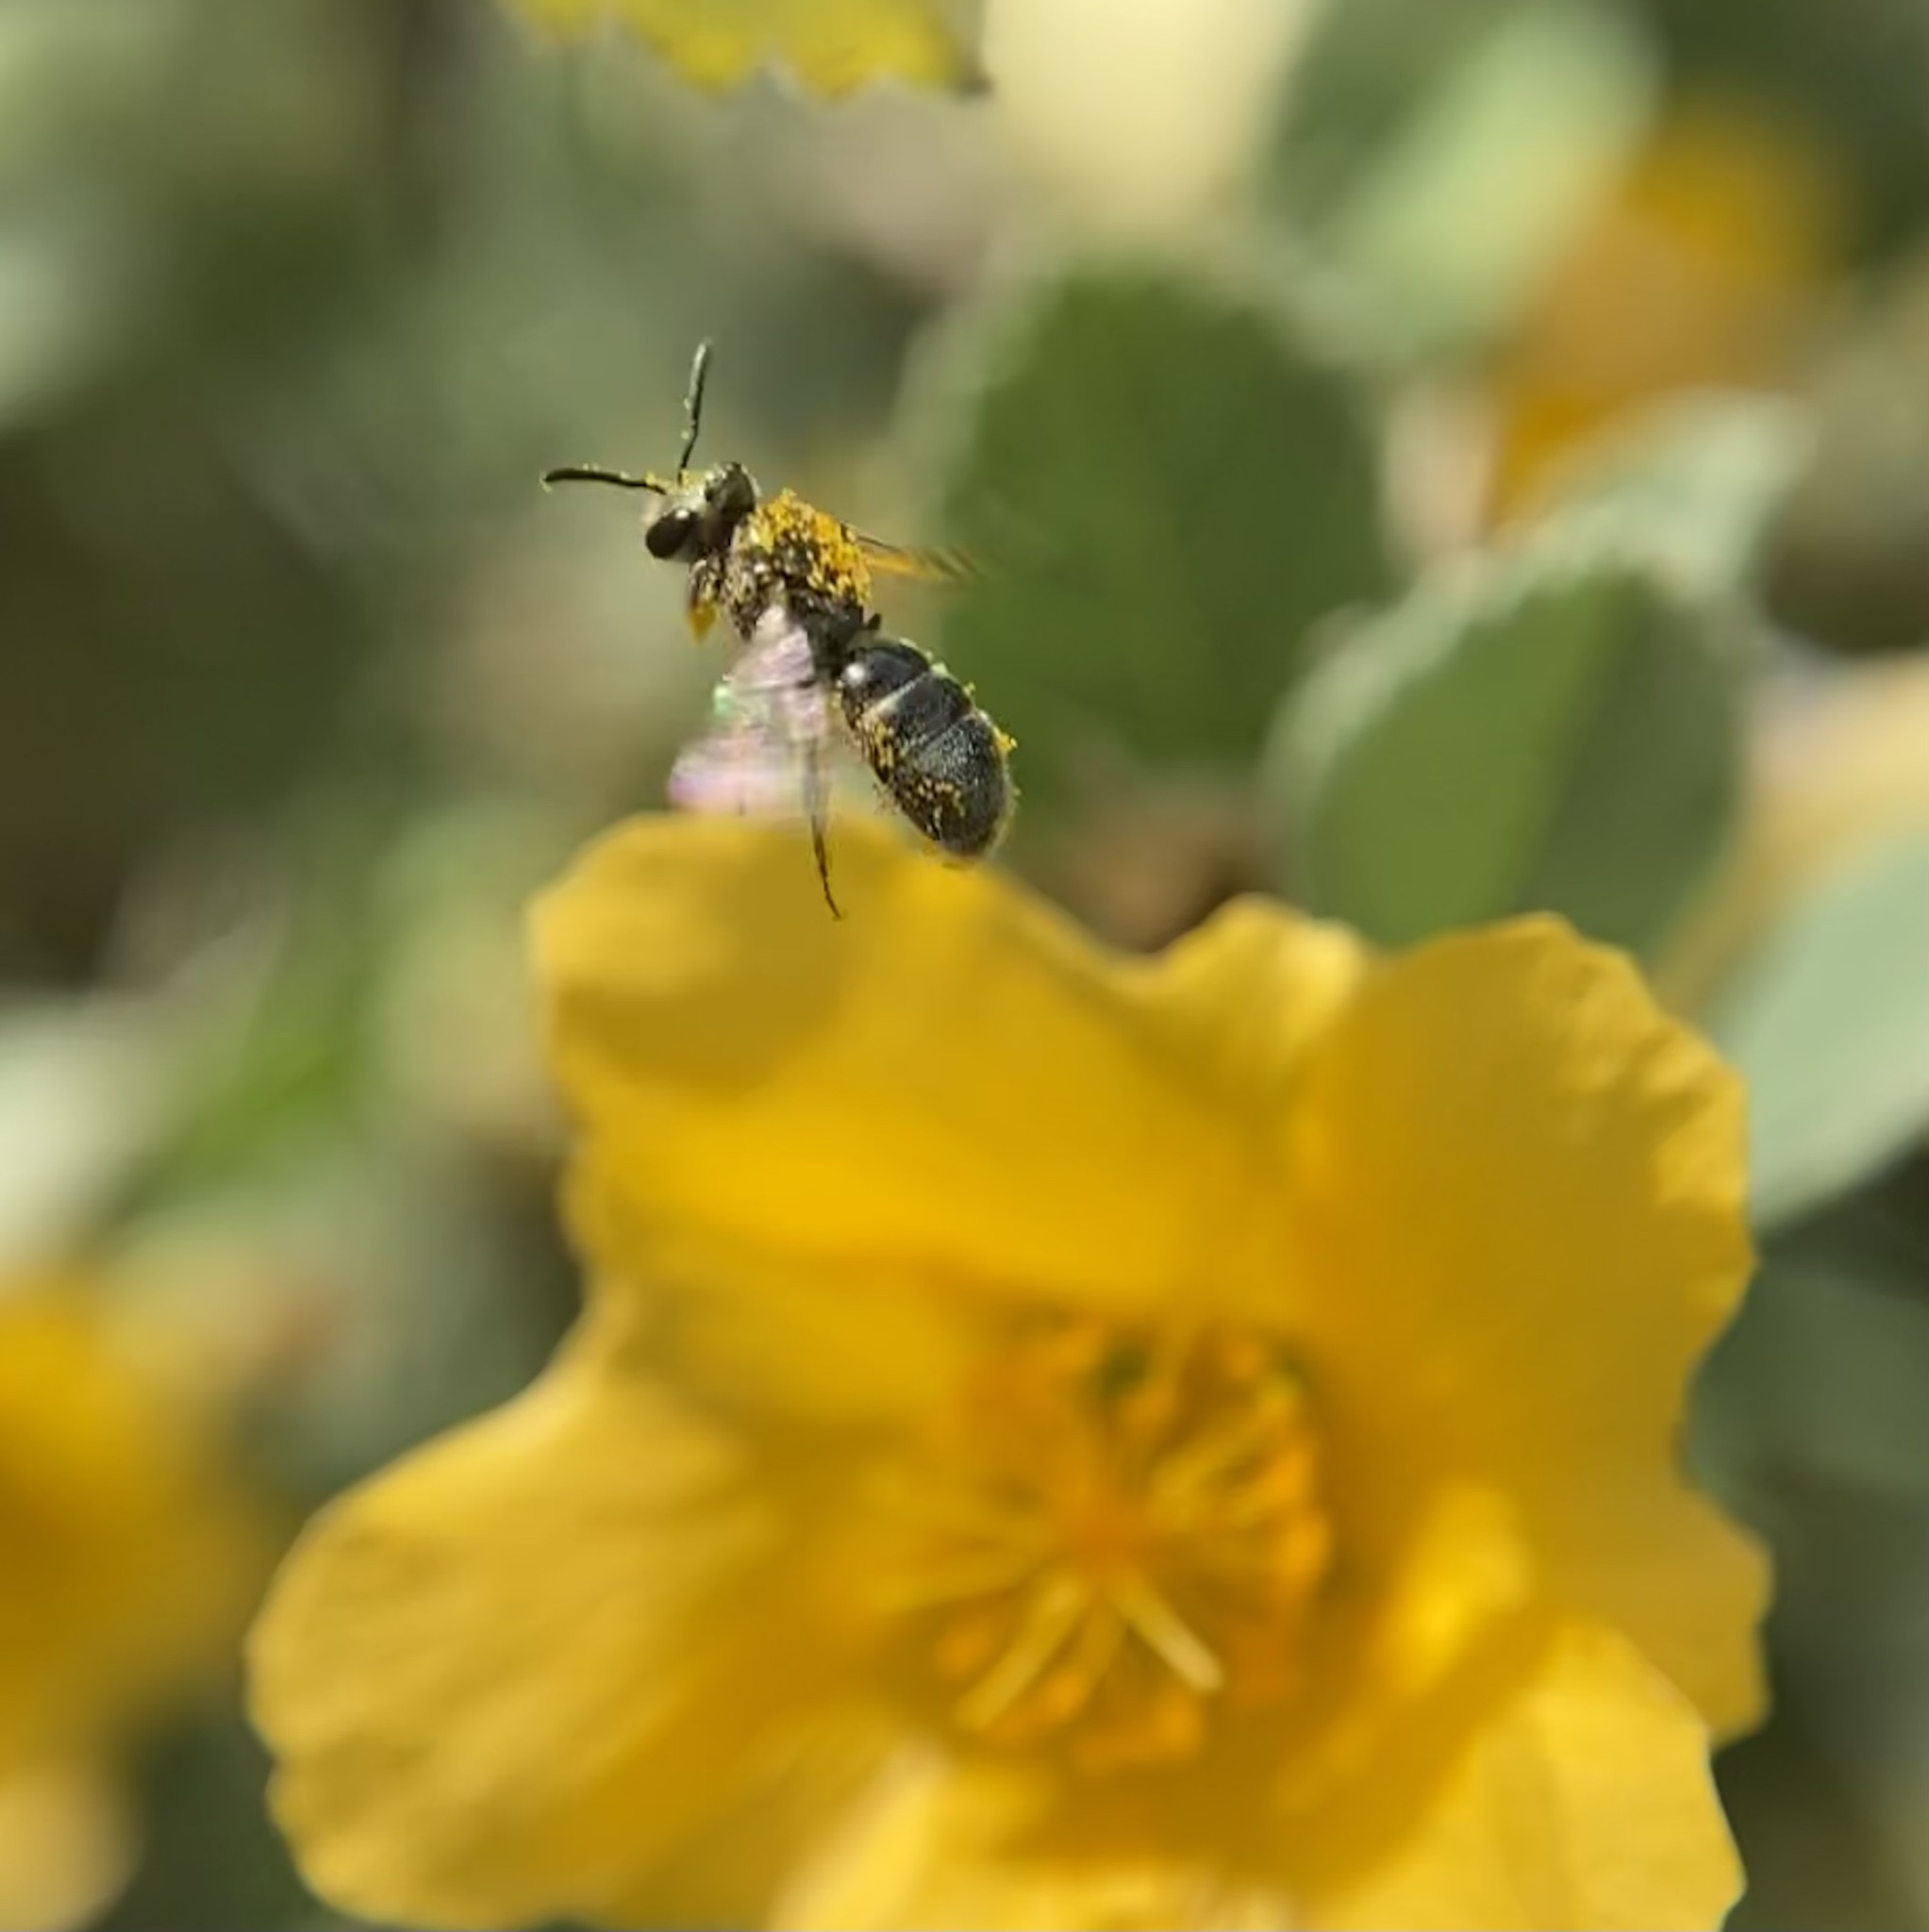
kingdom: Animalia
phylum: Arthropoda
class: Insecta
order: Hymenoptera
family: Halictidae
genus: Dialictus
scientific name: Dialictus
